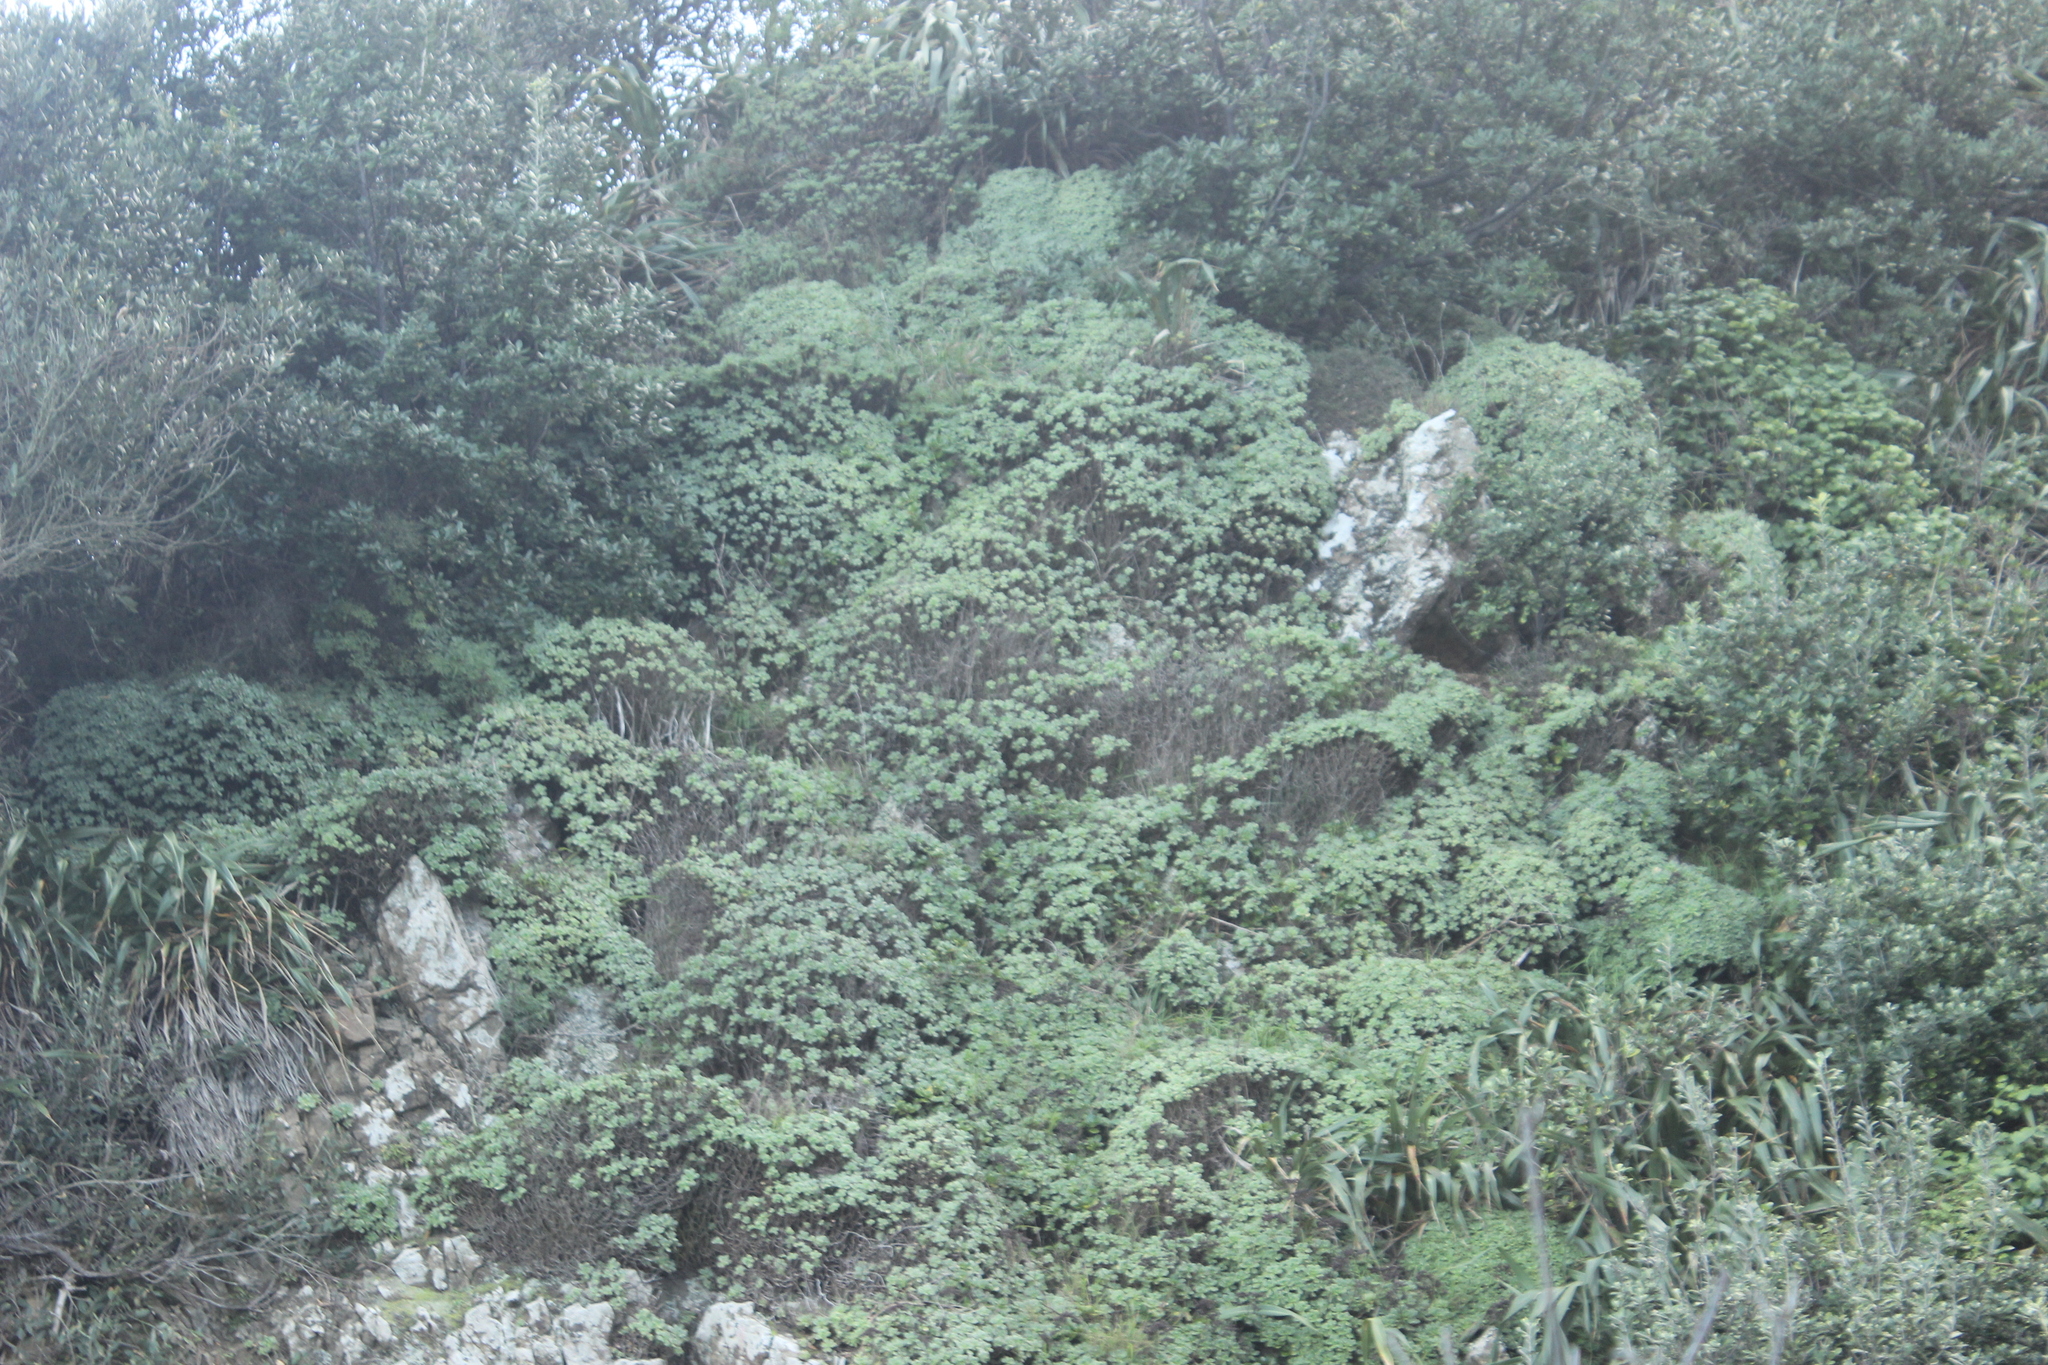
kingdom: Plantae
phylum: Tracheophyta
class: Magnoliopsida
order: Saxifragales
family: Crassulaceae
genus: Aeonium
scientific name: Aeonium haworthii
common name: Haworth's aeonium
